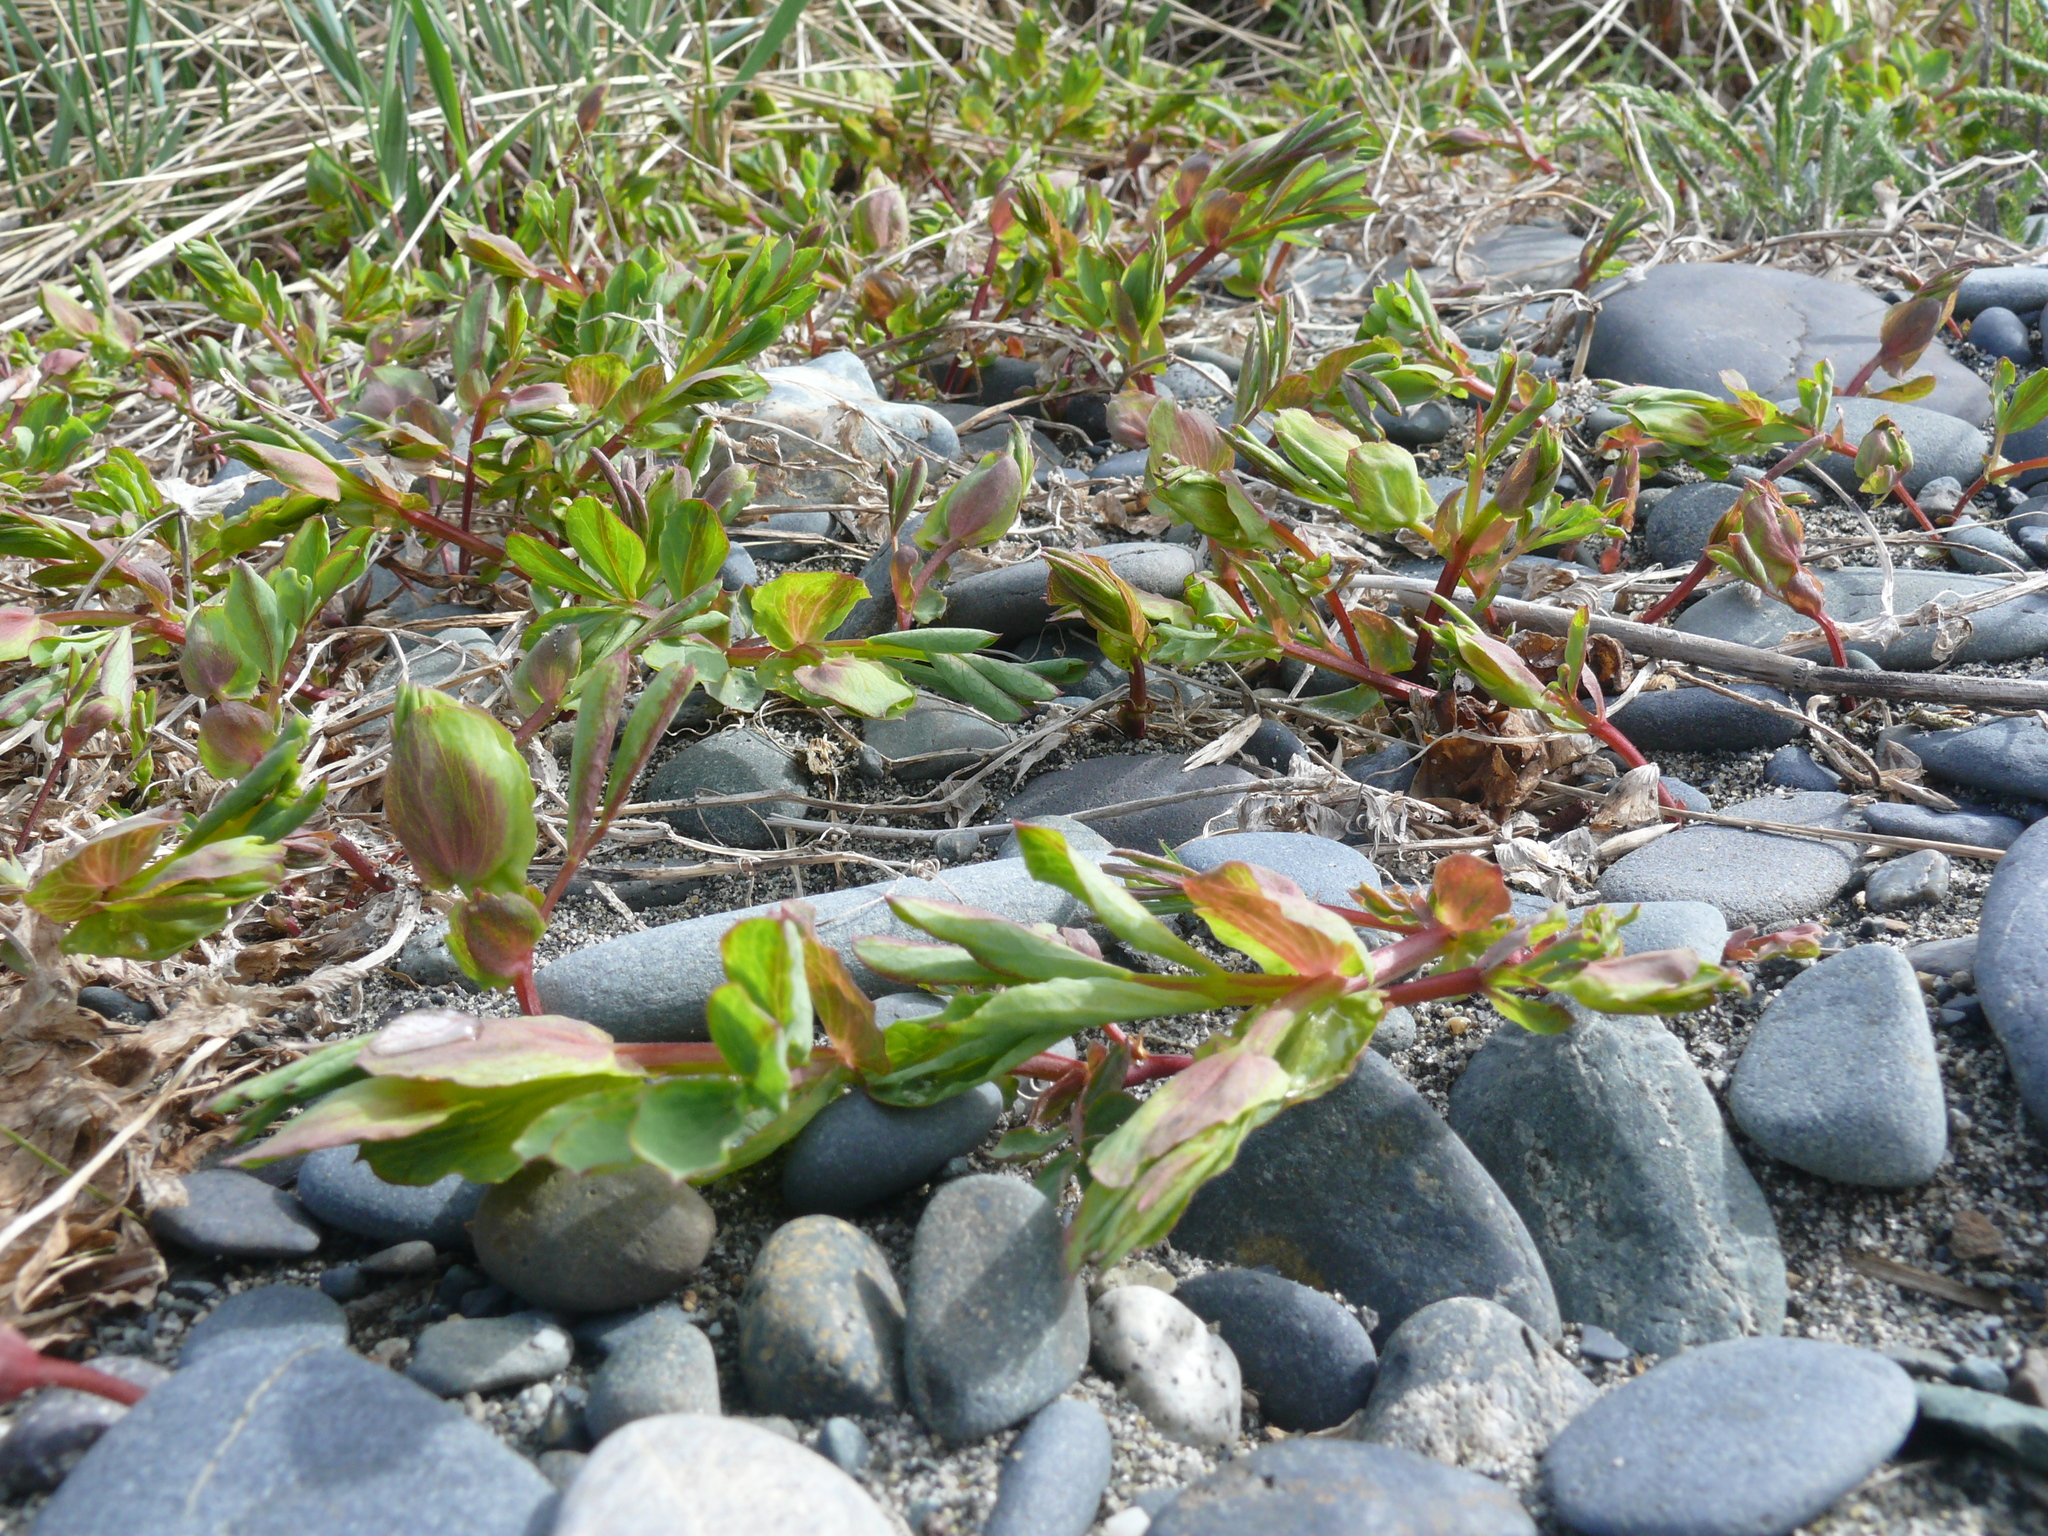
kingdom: Plantae
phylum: Tracheophyta
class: Magnoliopsida
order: Fabales
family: Fabaceae
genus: Lathyrus
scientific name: Lathyrus japonicus
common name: Sea pea
